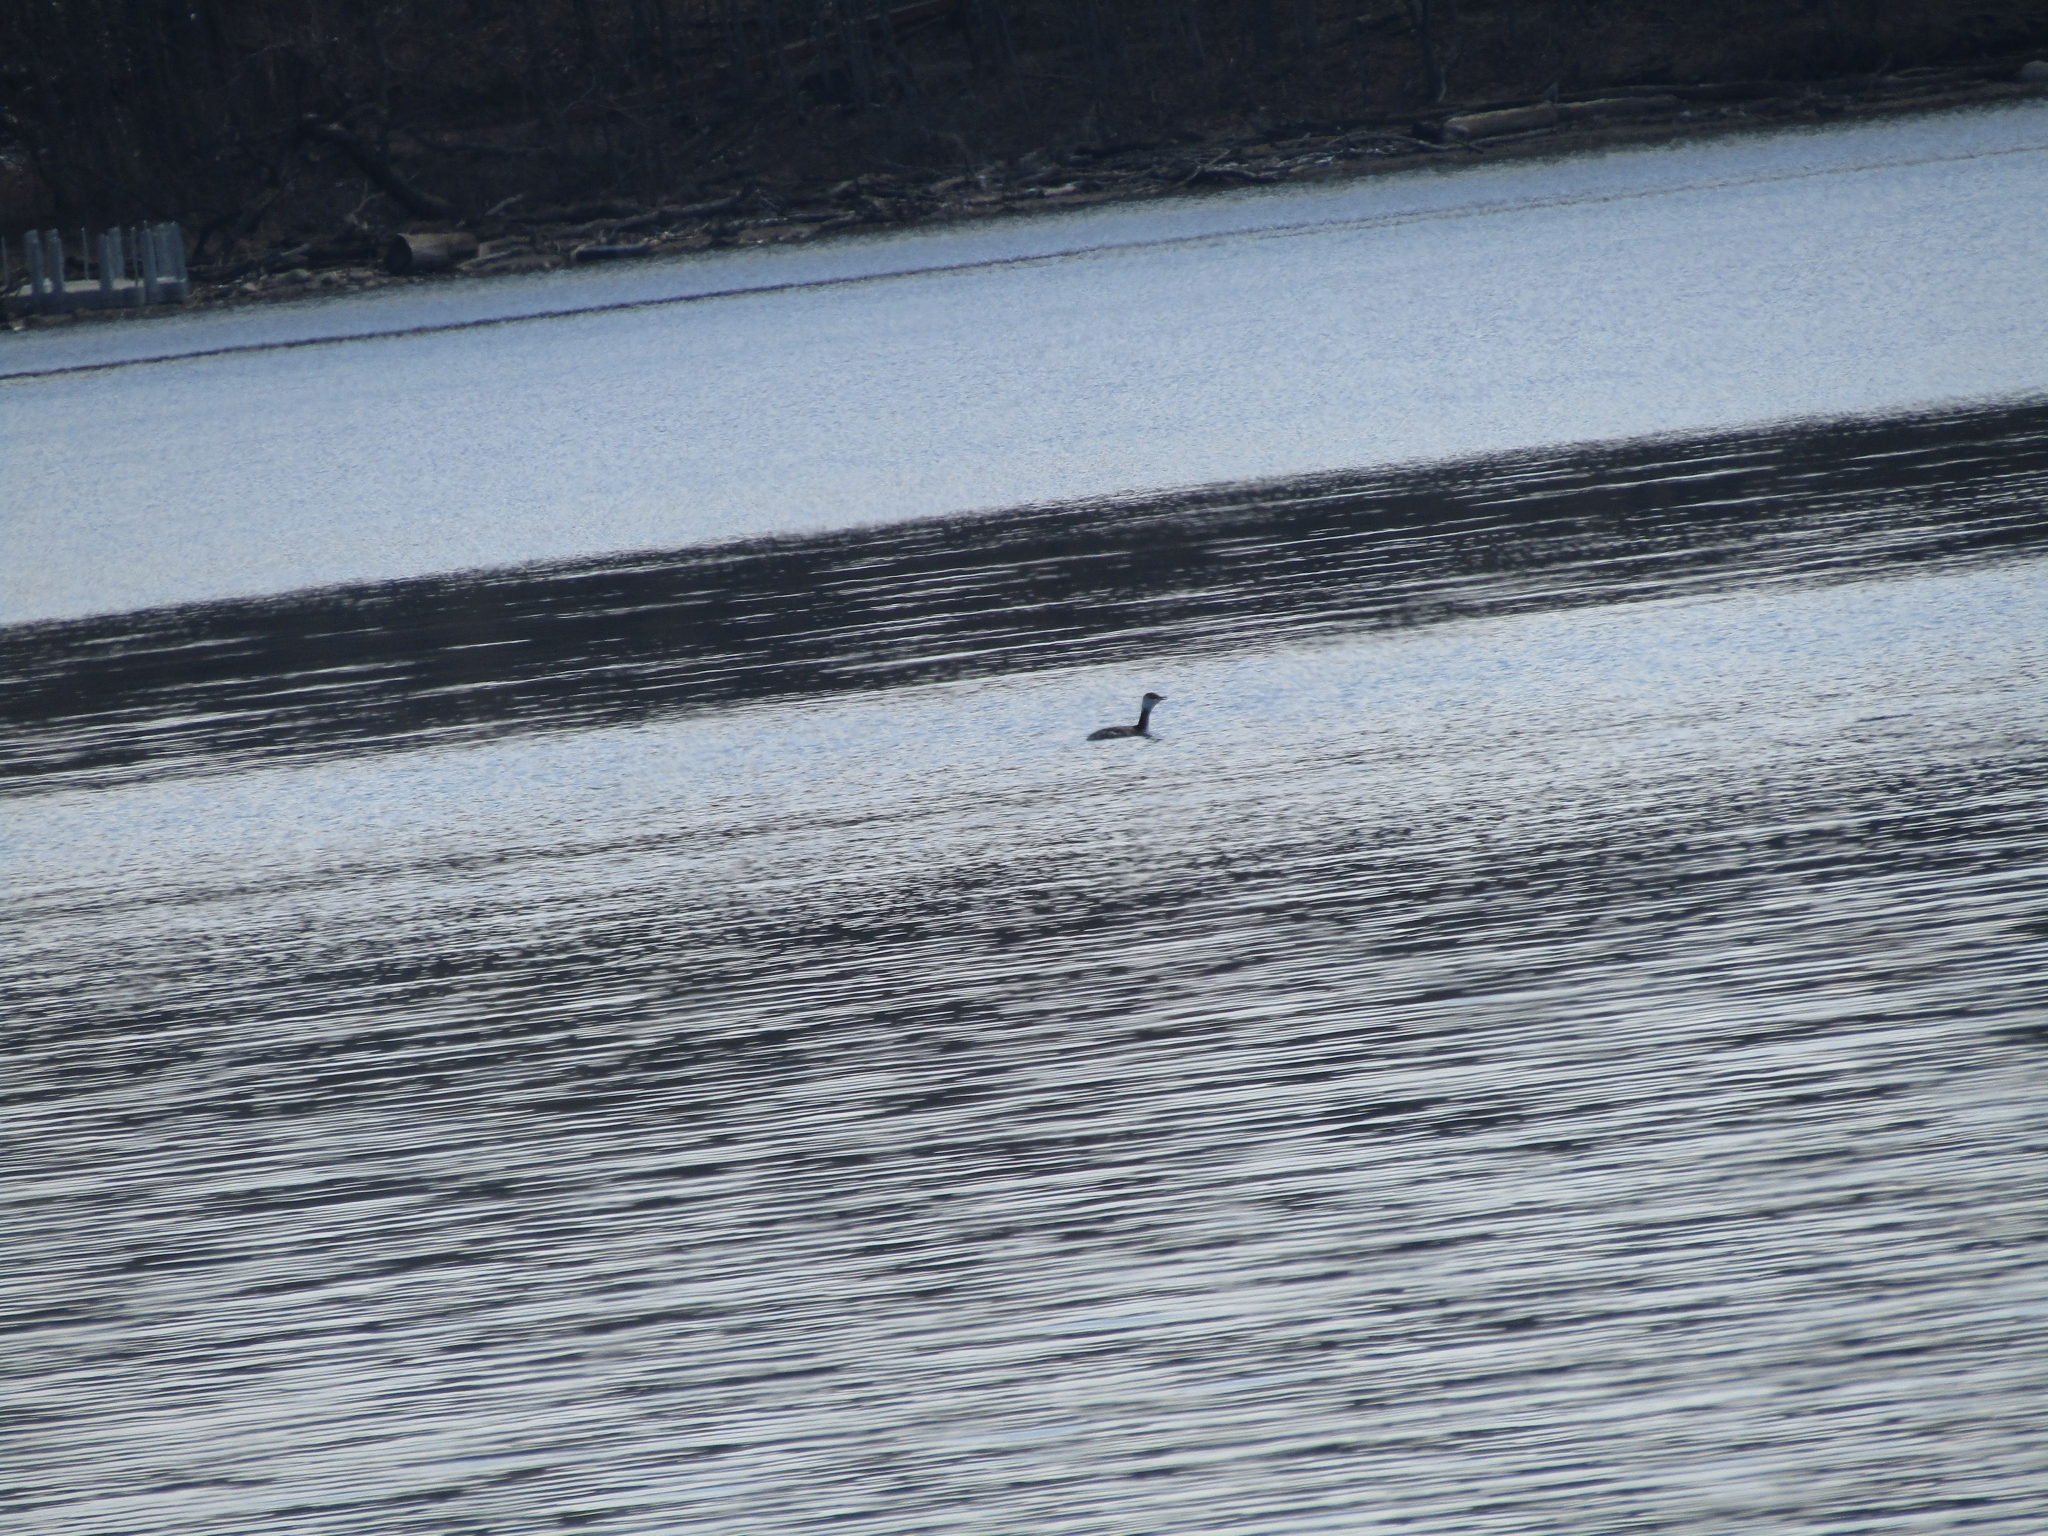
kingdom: Animalia
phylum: Chordata
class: Aves
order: Podicipediformes
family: Podicipedidae
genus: Podiceps
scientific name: Podiceps auritus
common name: Horned grebe
